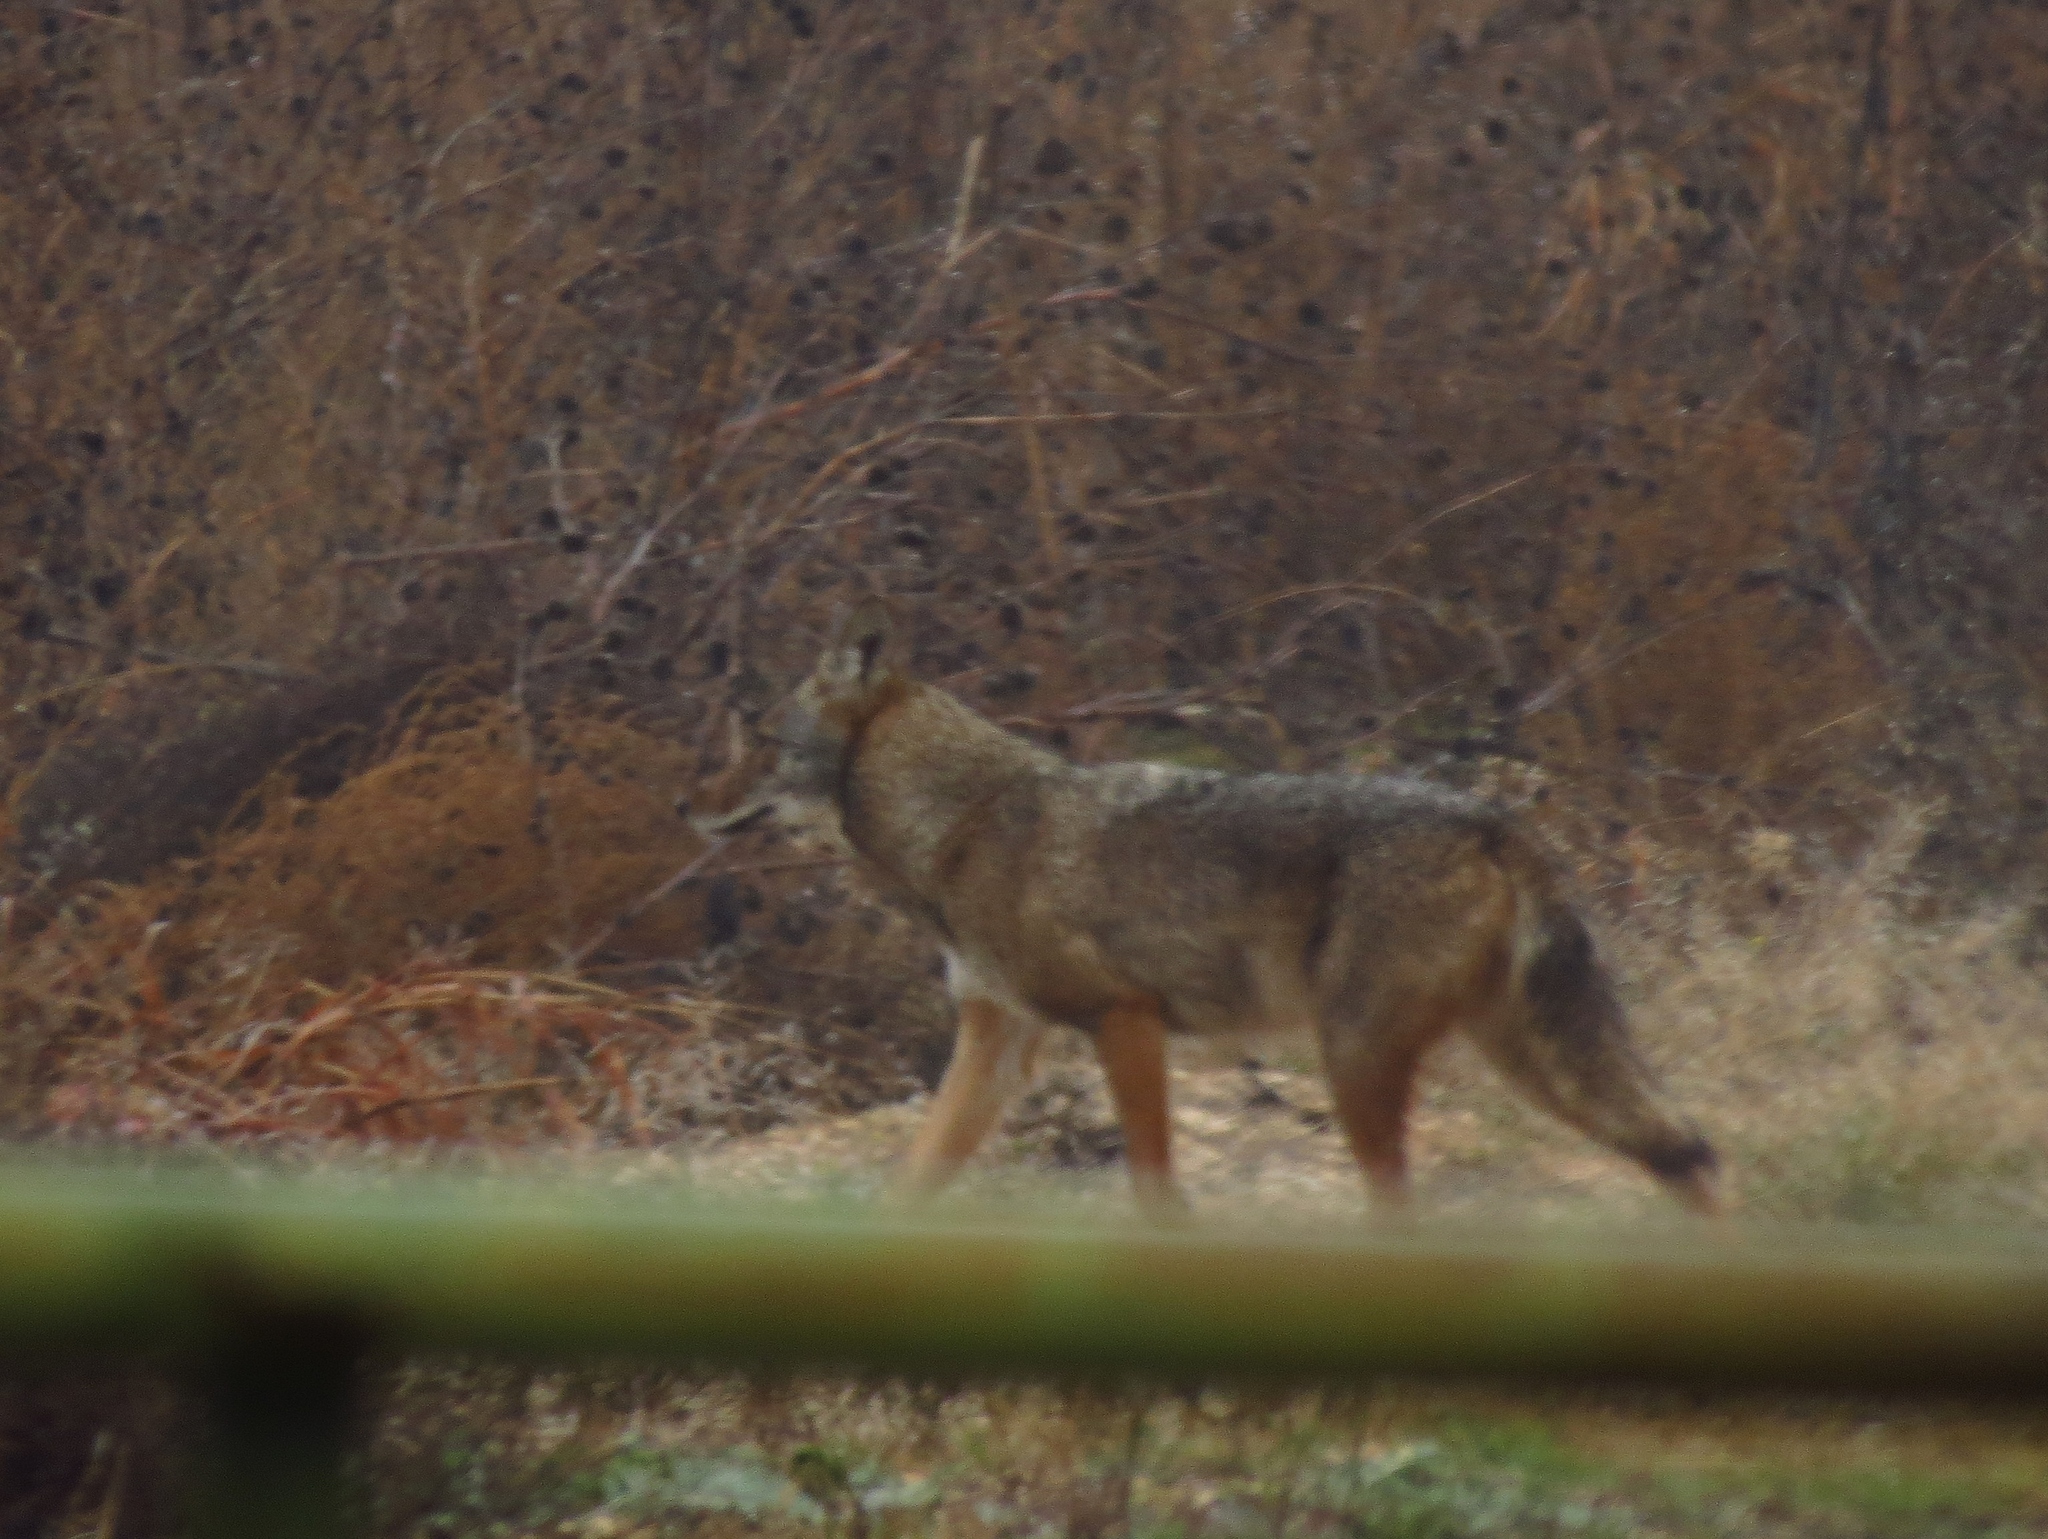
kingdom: Animalia
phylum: Chordata
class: Mammalia
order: Carnivora
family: Canidae
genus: Canis
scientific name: Canis latrans
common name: Coyote
